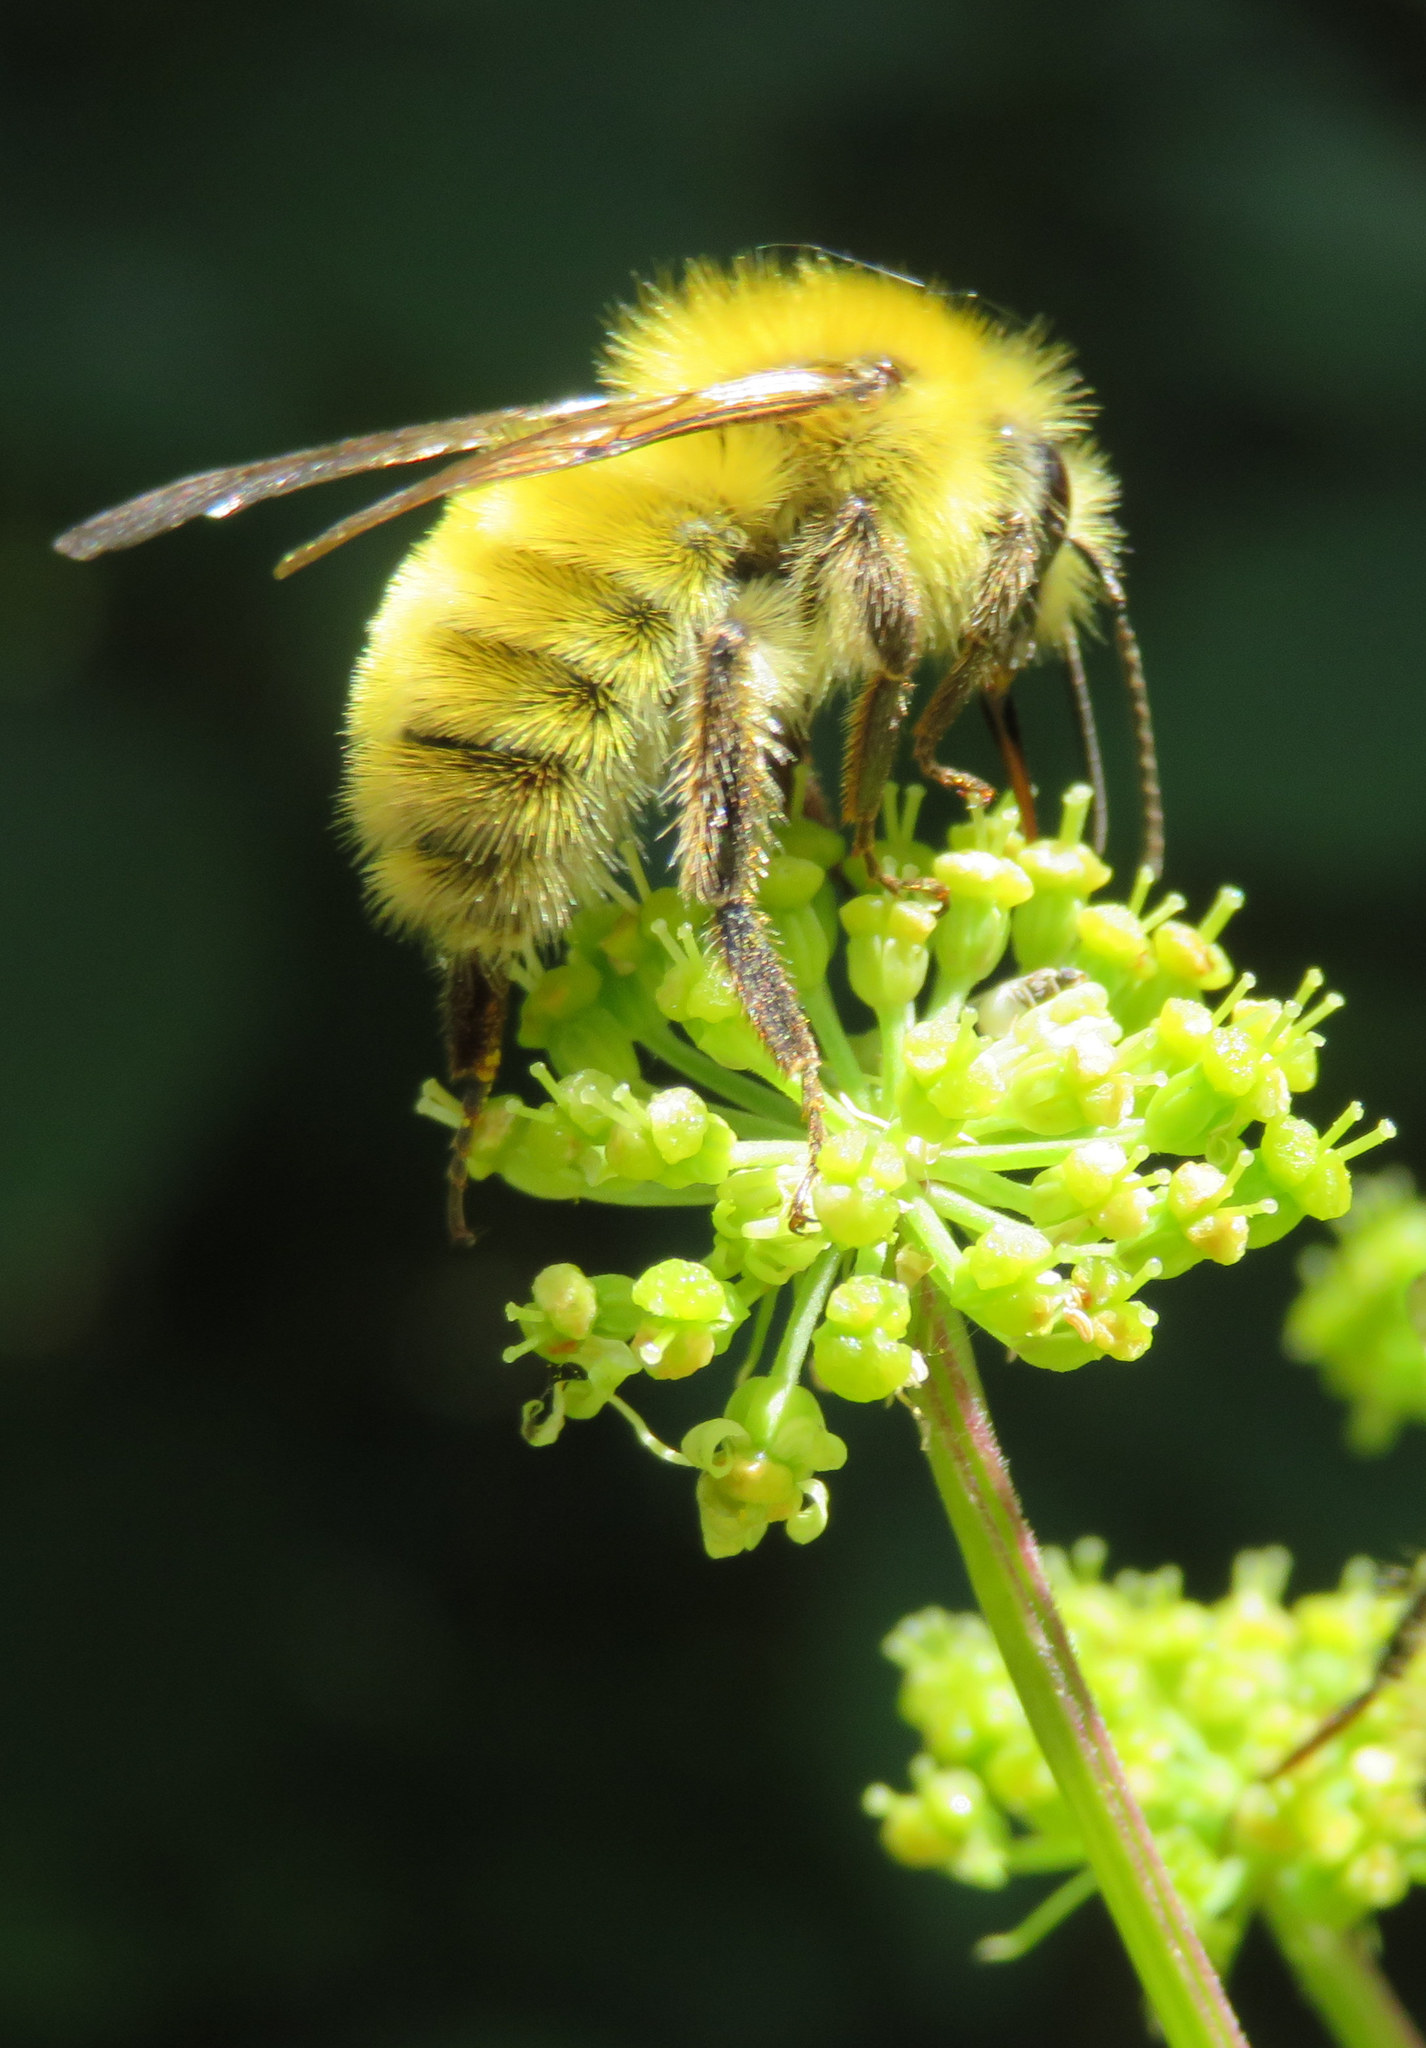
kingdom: Animalia
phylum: Arthropoda
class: Insecta
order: Hymenoptera
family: Apidae
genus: Bombus
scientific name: Bombus perplexus
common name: Confusing bumble bee
